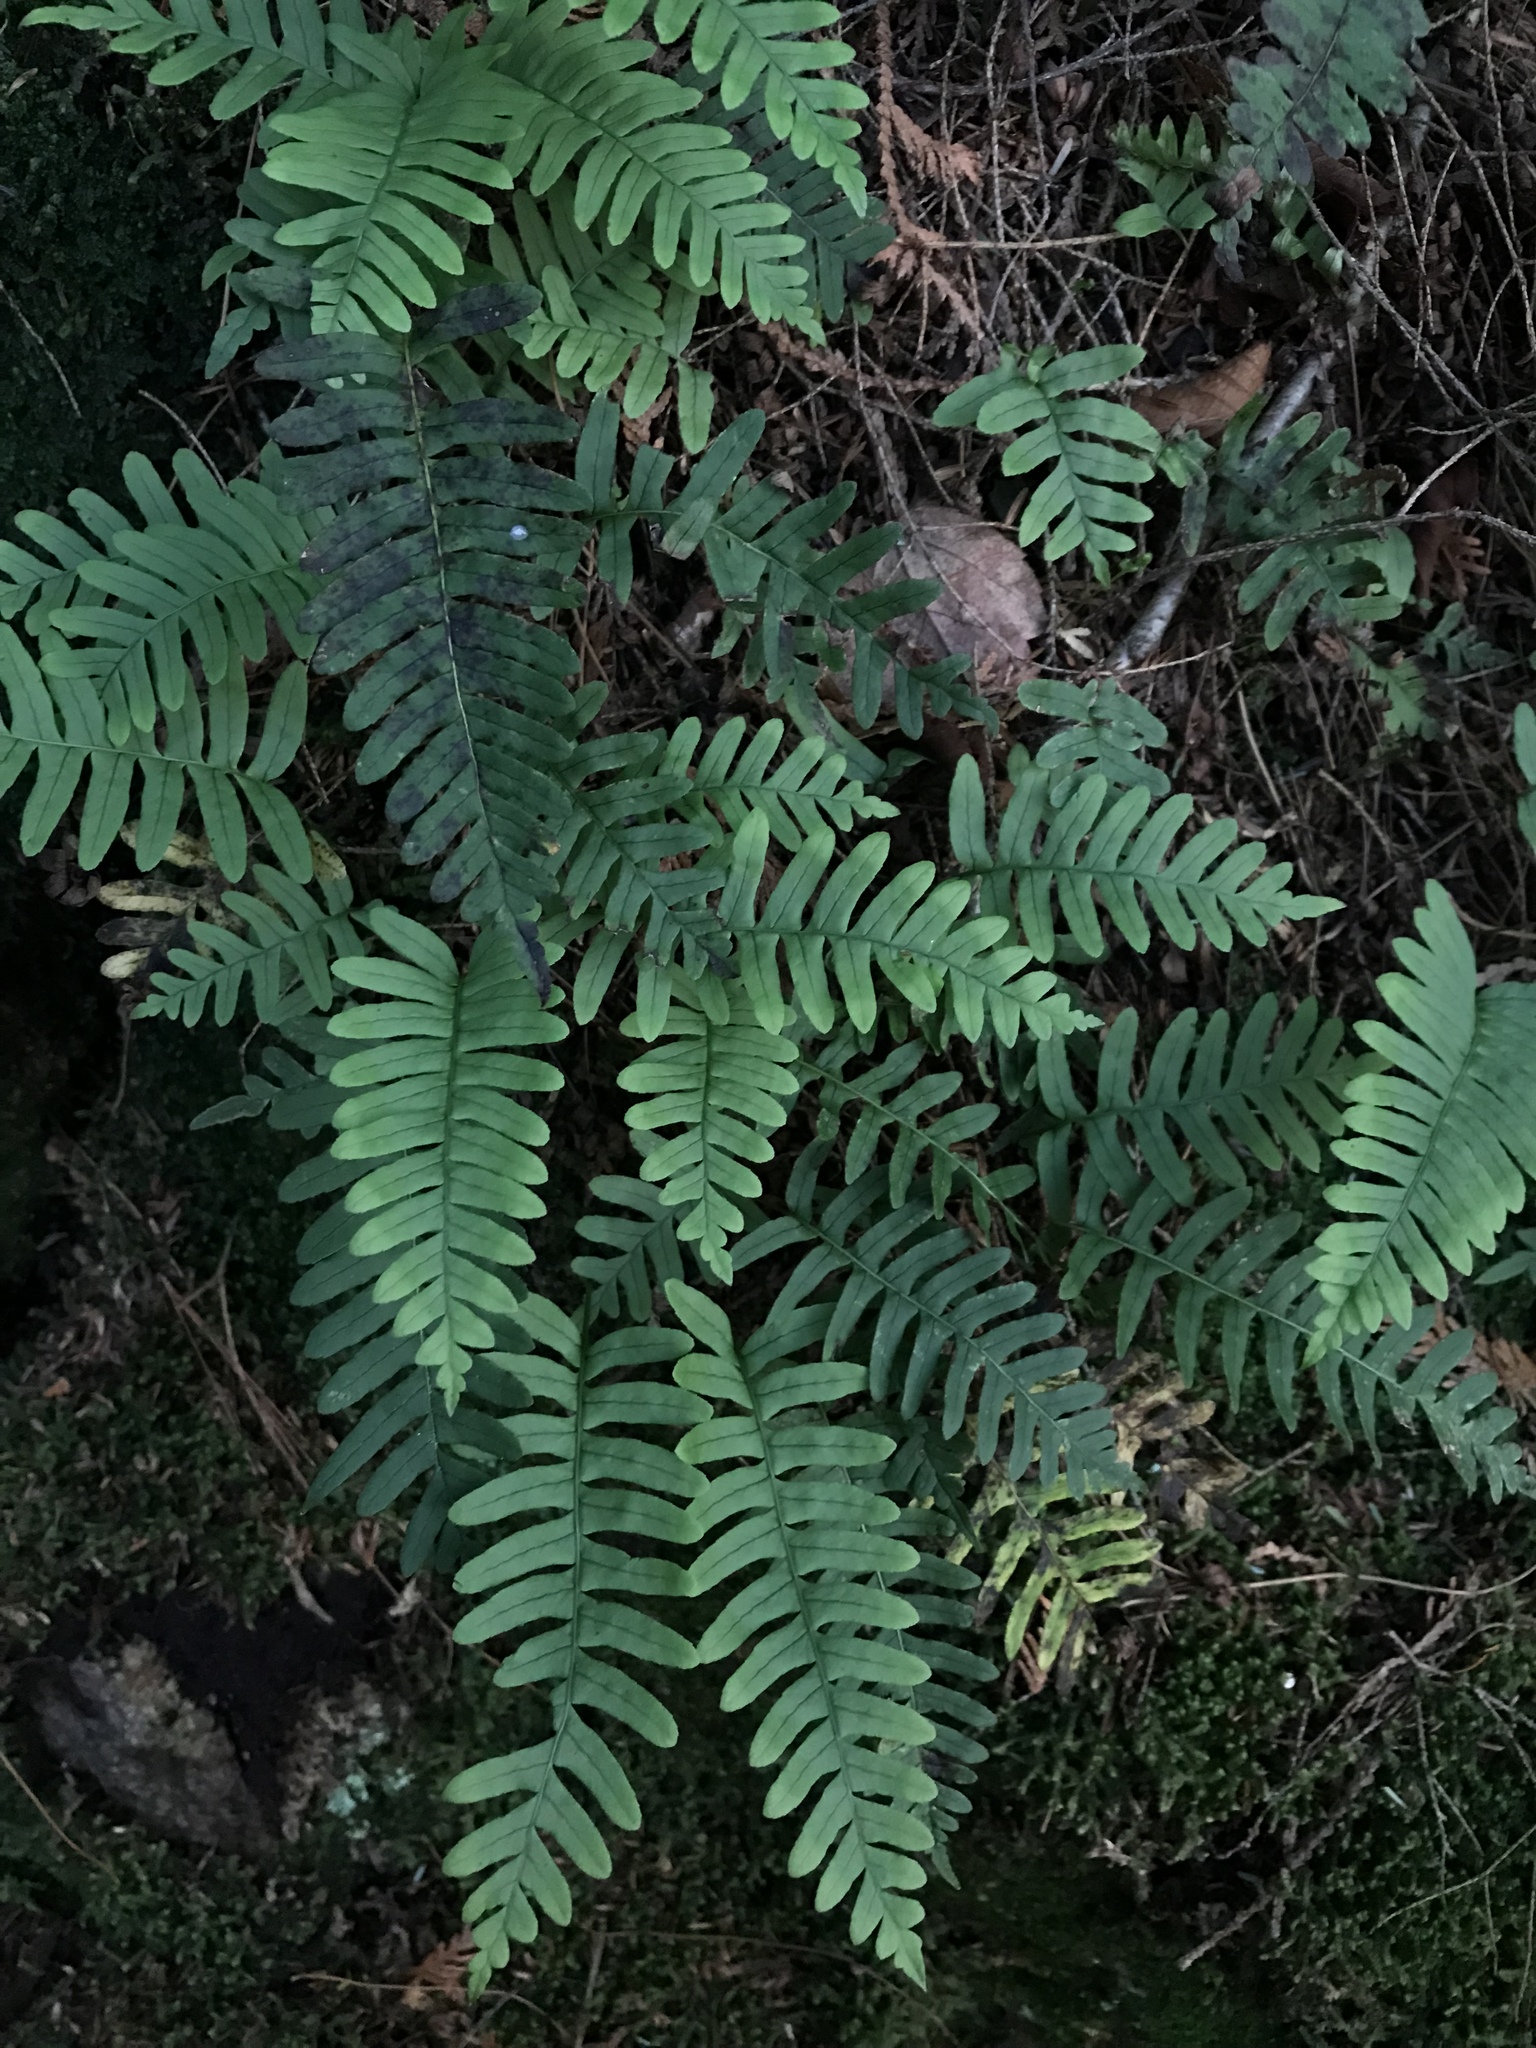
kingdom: Plantae
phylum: Tracheophyta
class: Polypodiopsida
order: Polypodiales
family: Polypodiaceae
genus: Polypodium
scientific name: Polypodium virginianum
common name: American wall fern
